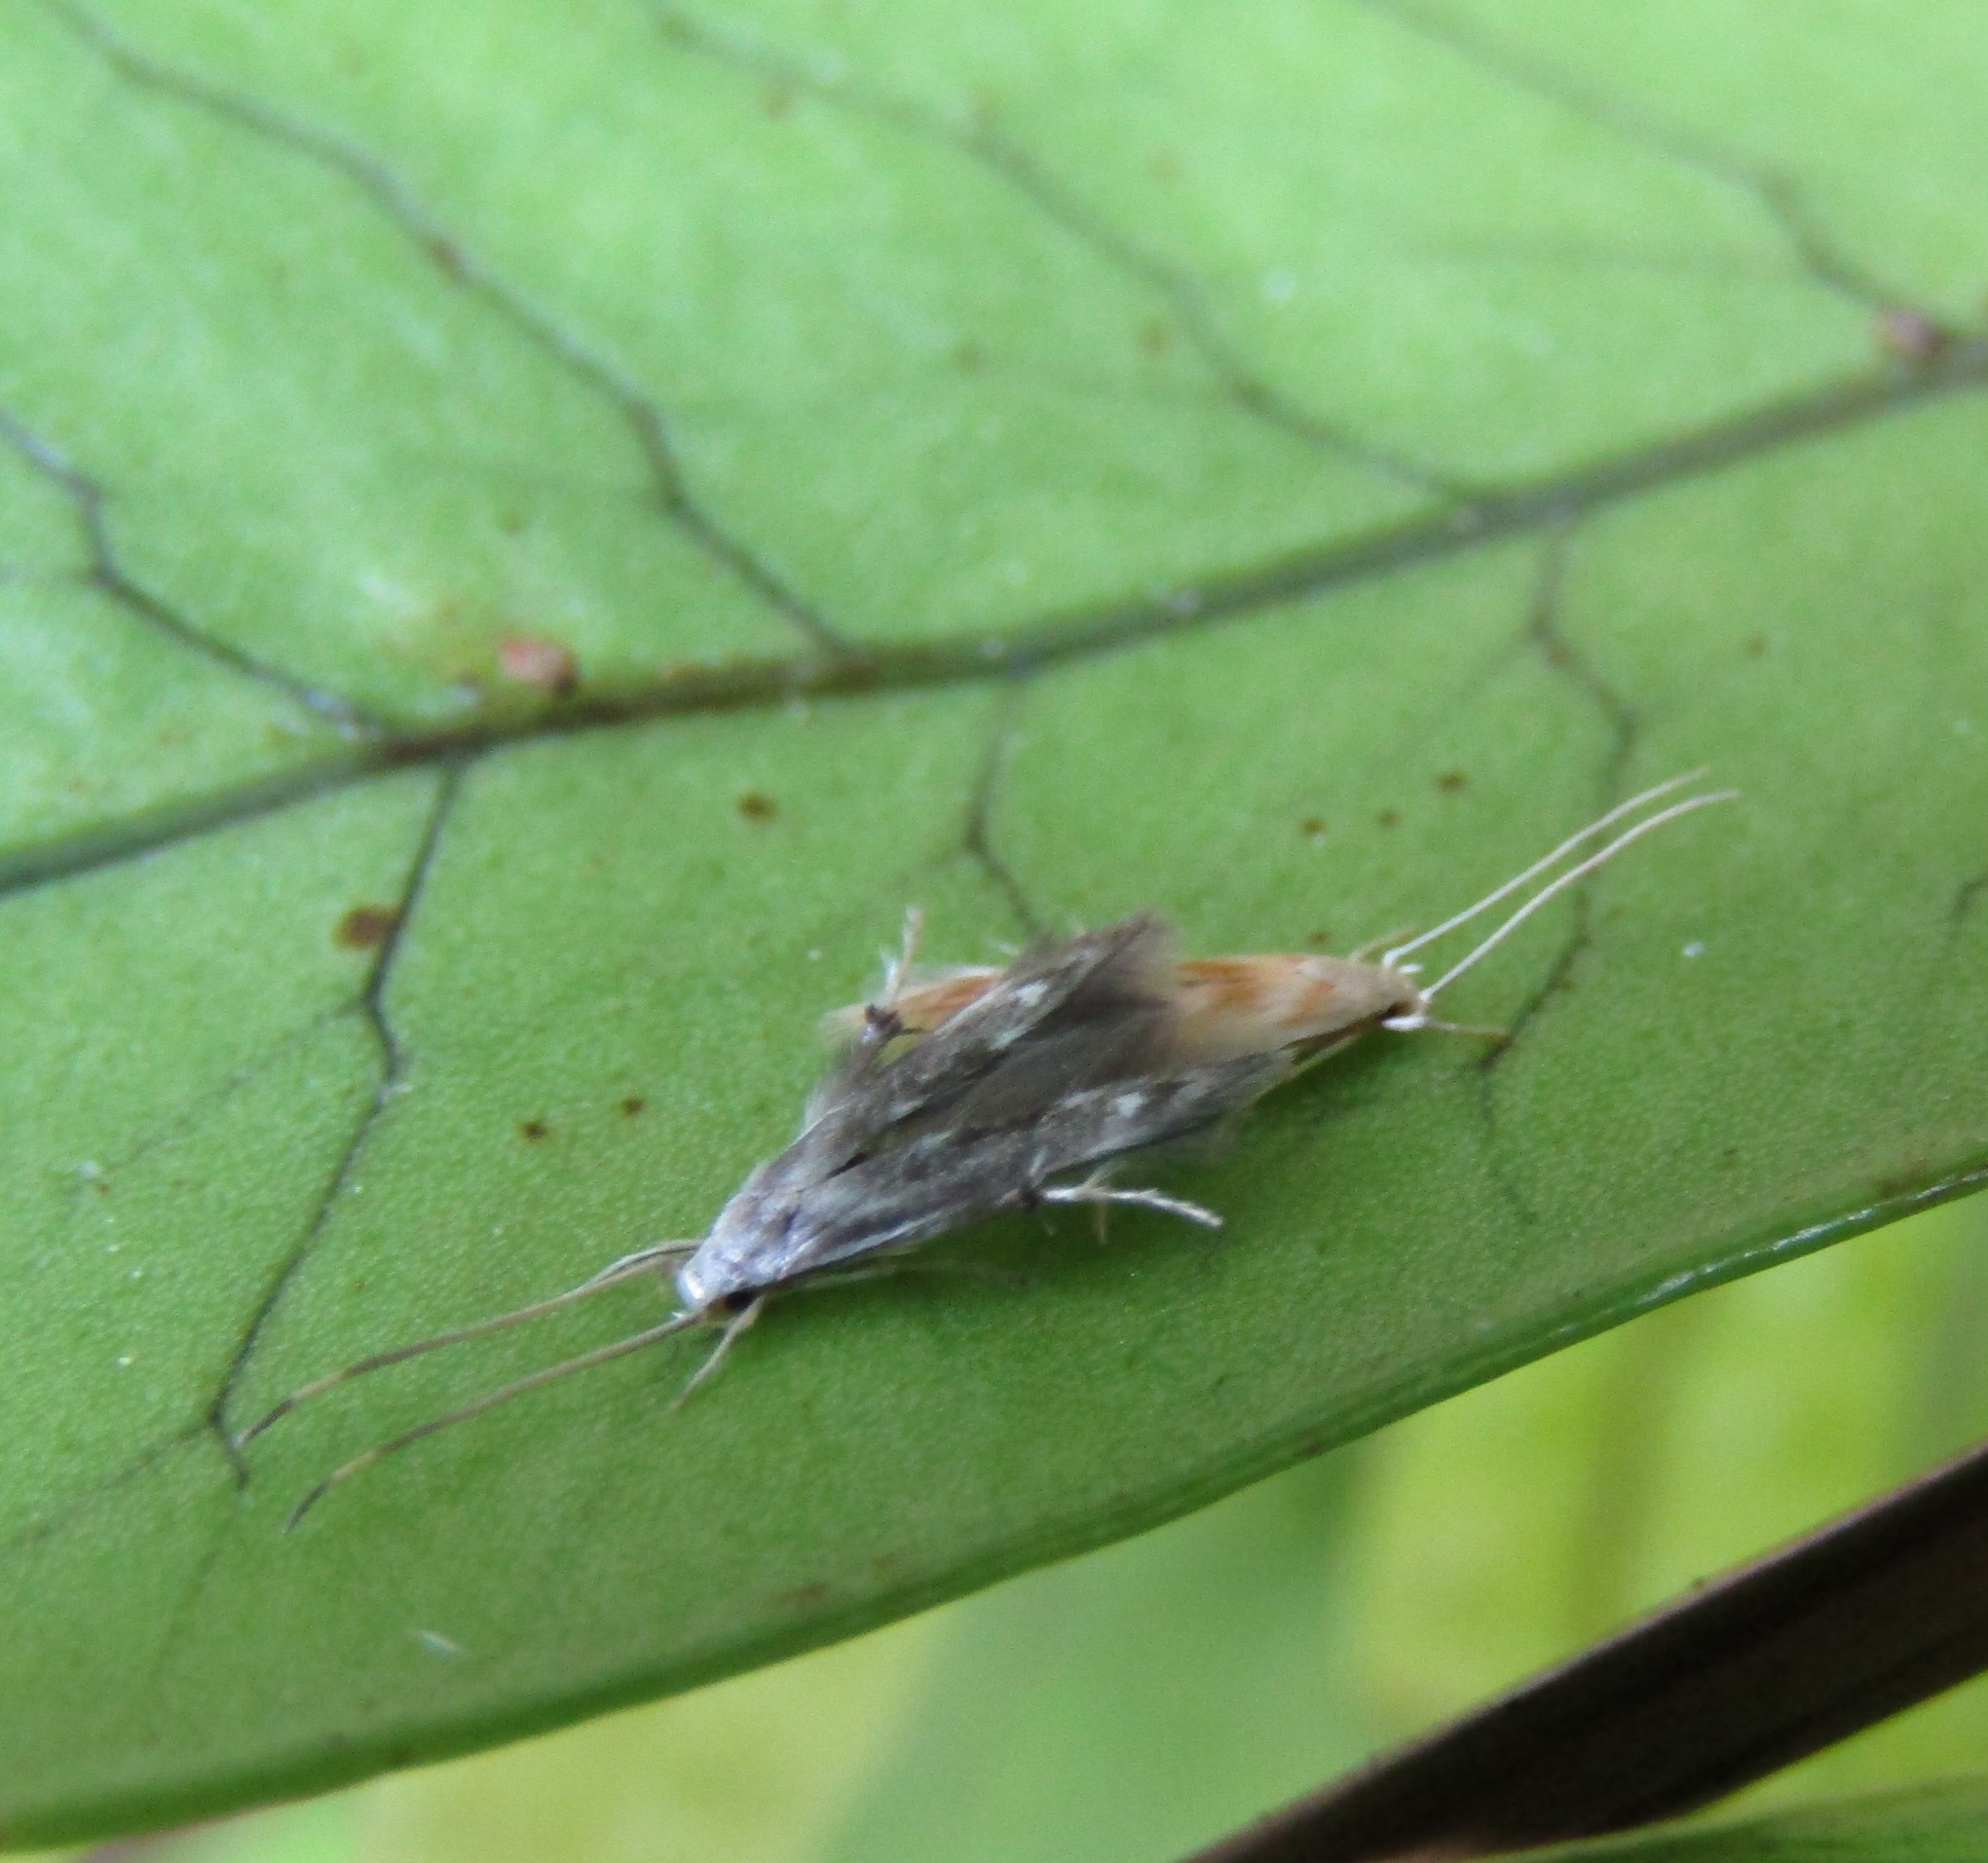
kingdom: Animalia
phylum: Arthropoda
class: Insecta
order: Lepidoptera
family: Stathmopodidae
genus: Thylacosceles
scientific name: Thylacosceles radians
